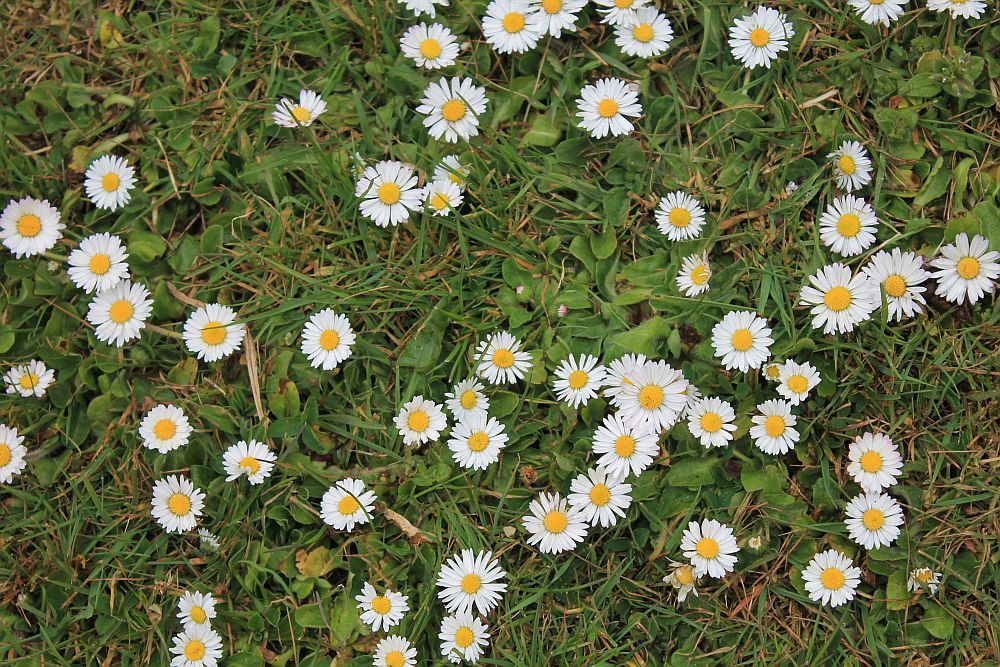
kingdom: Plantae
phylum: Tracheophyta
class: Magnoliopsida
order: Asterales
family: Asteraceae
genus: Bellis
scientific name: Bellis perennis
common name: Lawndaisy
